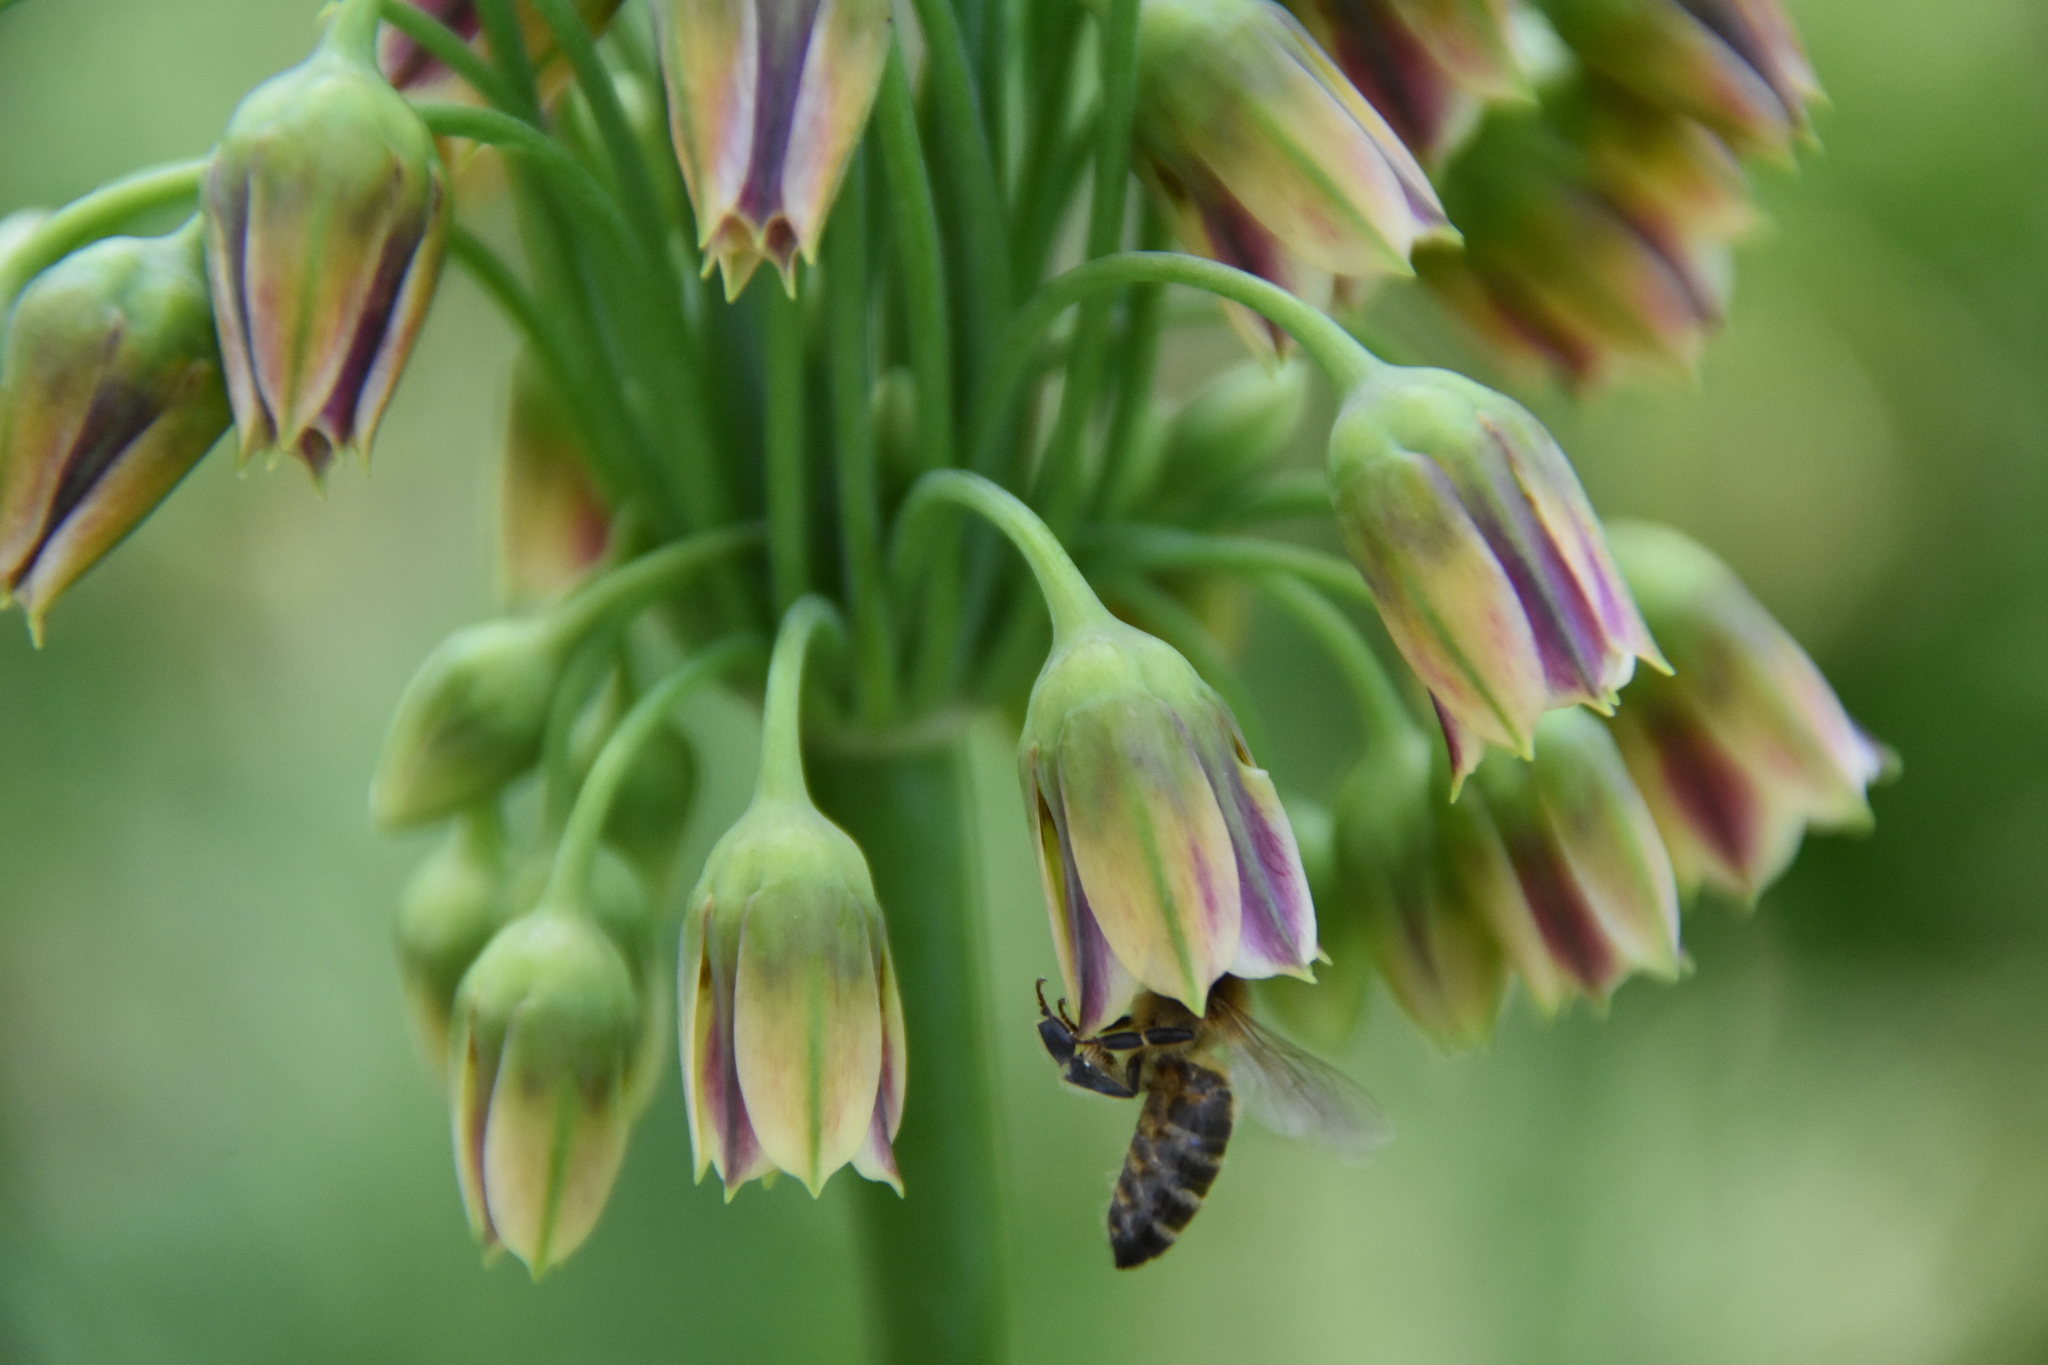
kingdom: Animalia
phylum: Arthropoda
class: Insecta
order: Hymenoptera
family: Apidae
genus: Apis
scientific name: Apis mellifera
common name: Honey bee
